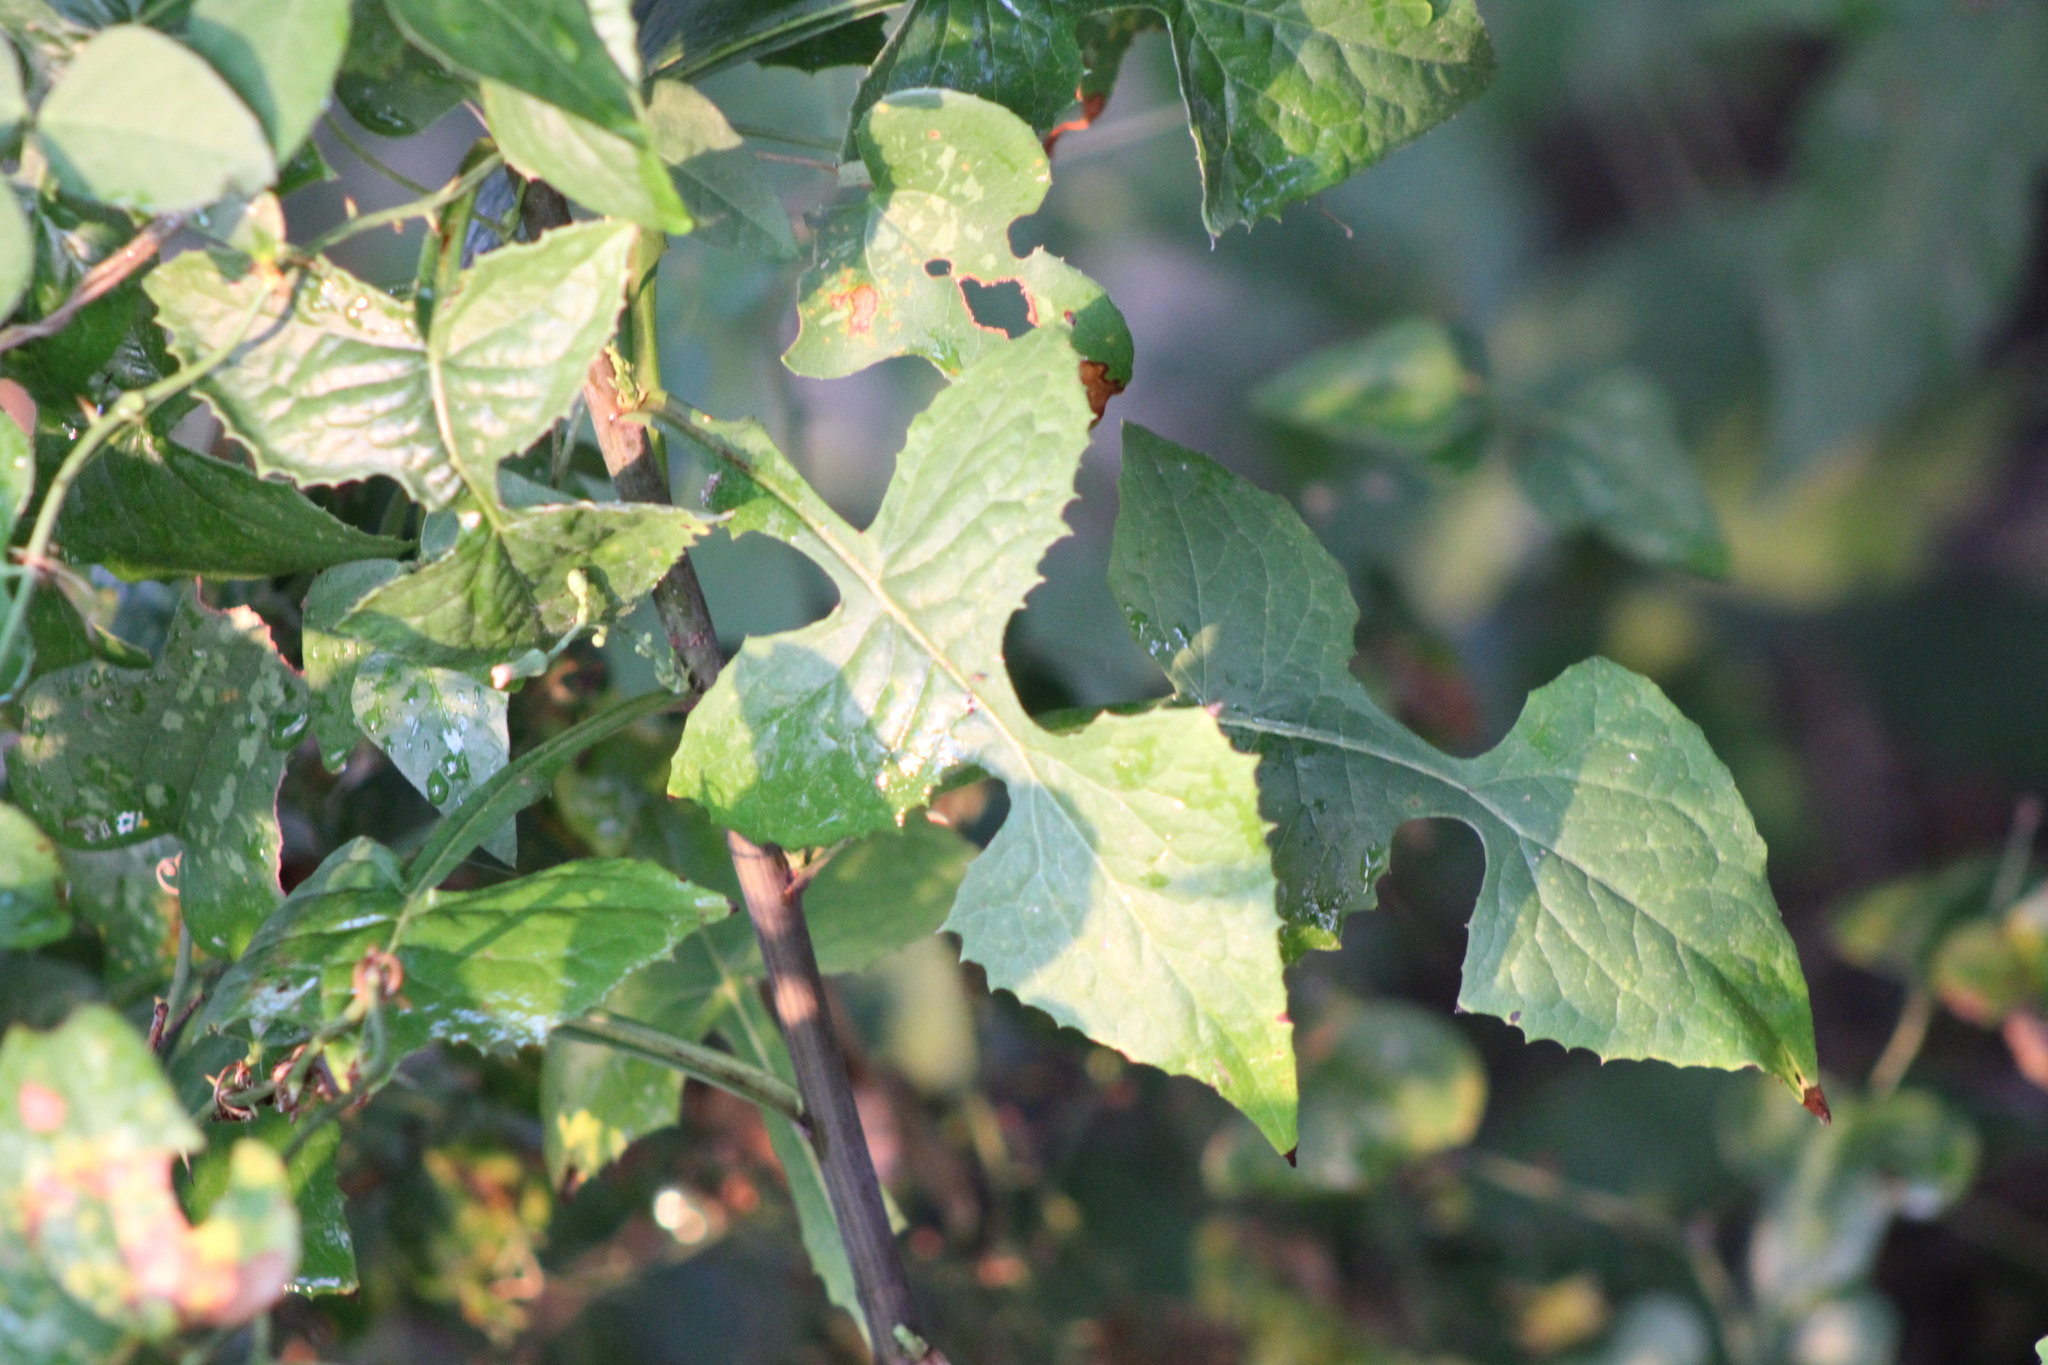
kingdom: Plantae
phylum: Tracheophyta
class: Magnoliopsida
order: Asterales
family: Asteraceae
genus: Lactuca
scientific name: Lactuca floridana
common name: Woodland lettuce
